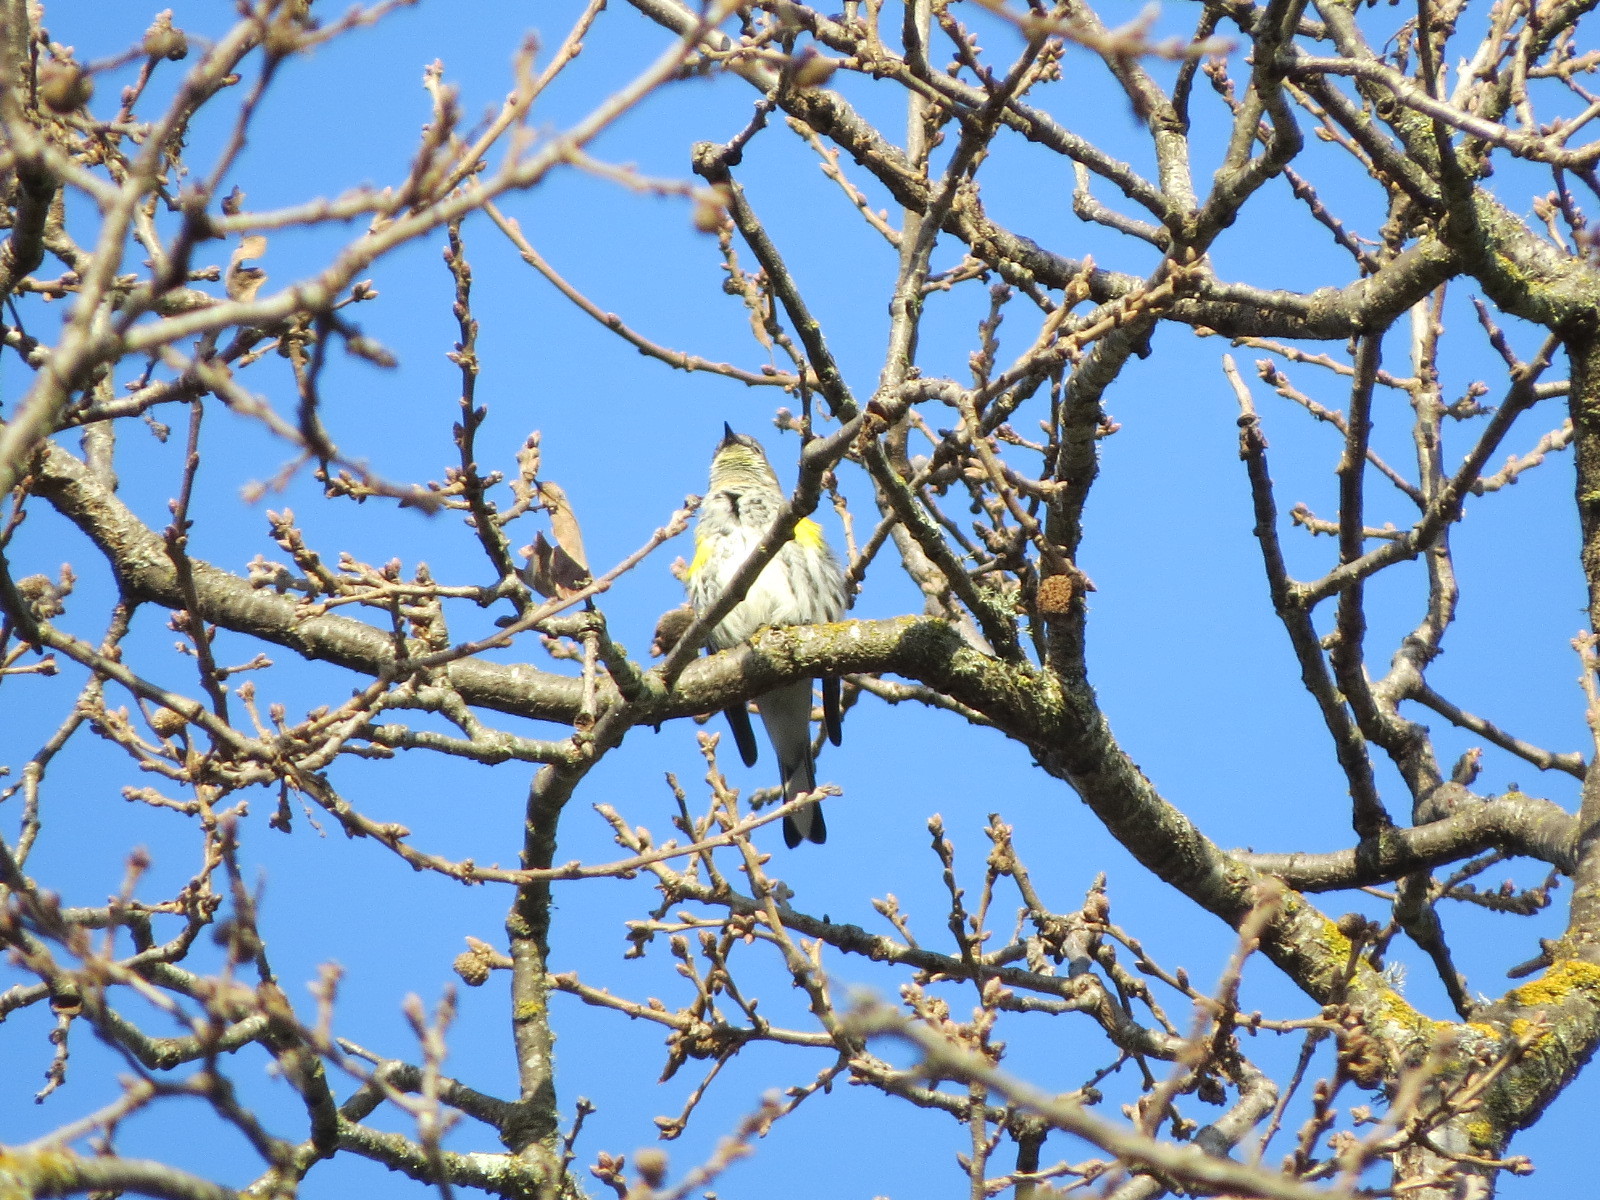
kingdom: Animalia
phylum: Chordata
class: Aves
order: Passeriformes
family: Parulidae
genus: Setophaga
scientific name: Setophaga auduboni
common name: Audubon's warbler
